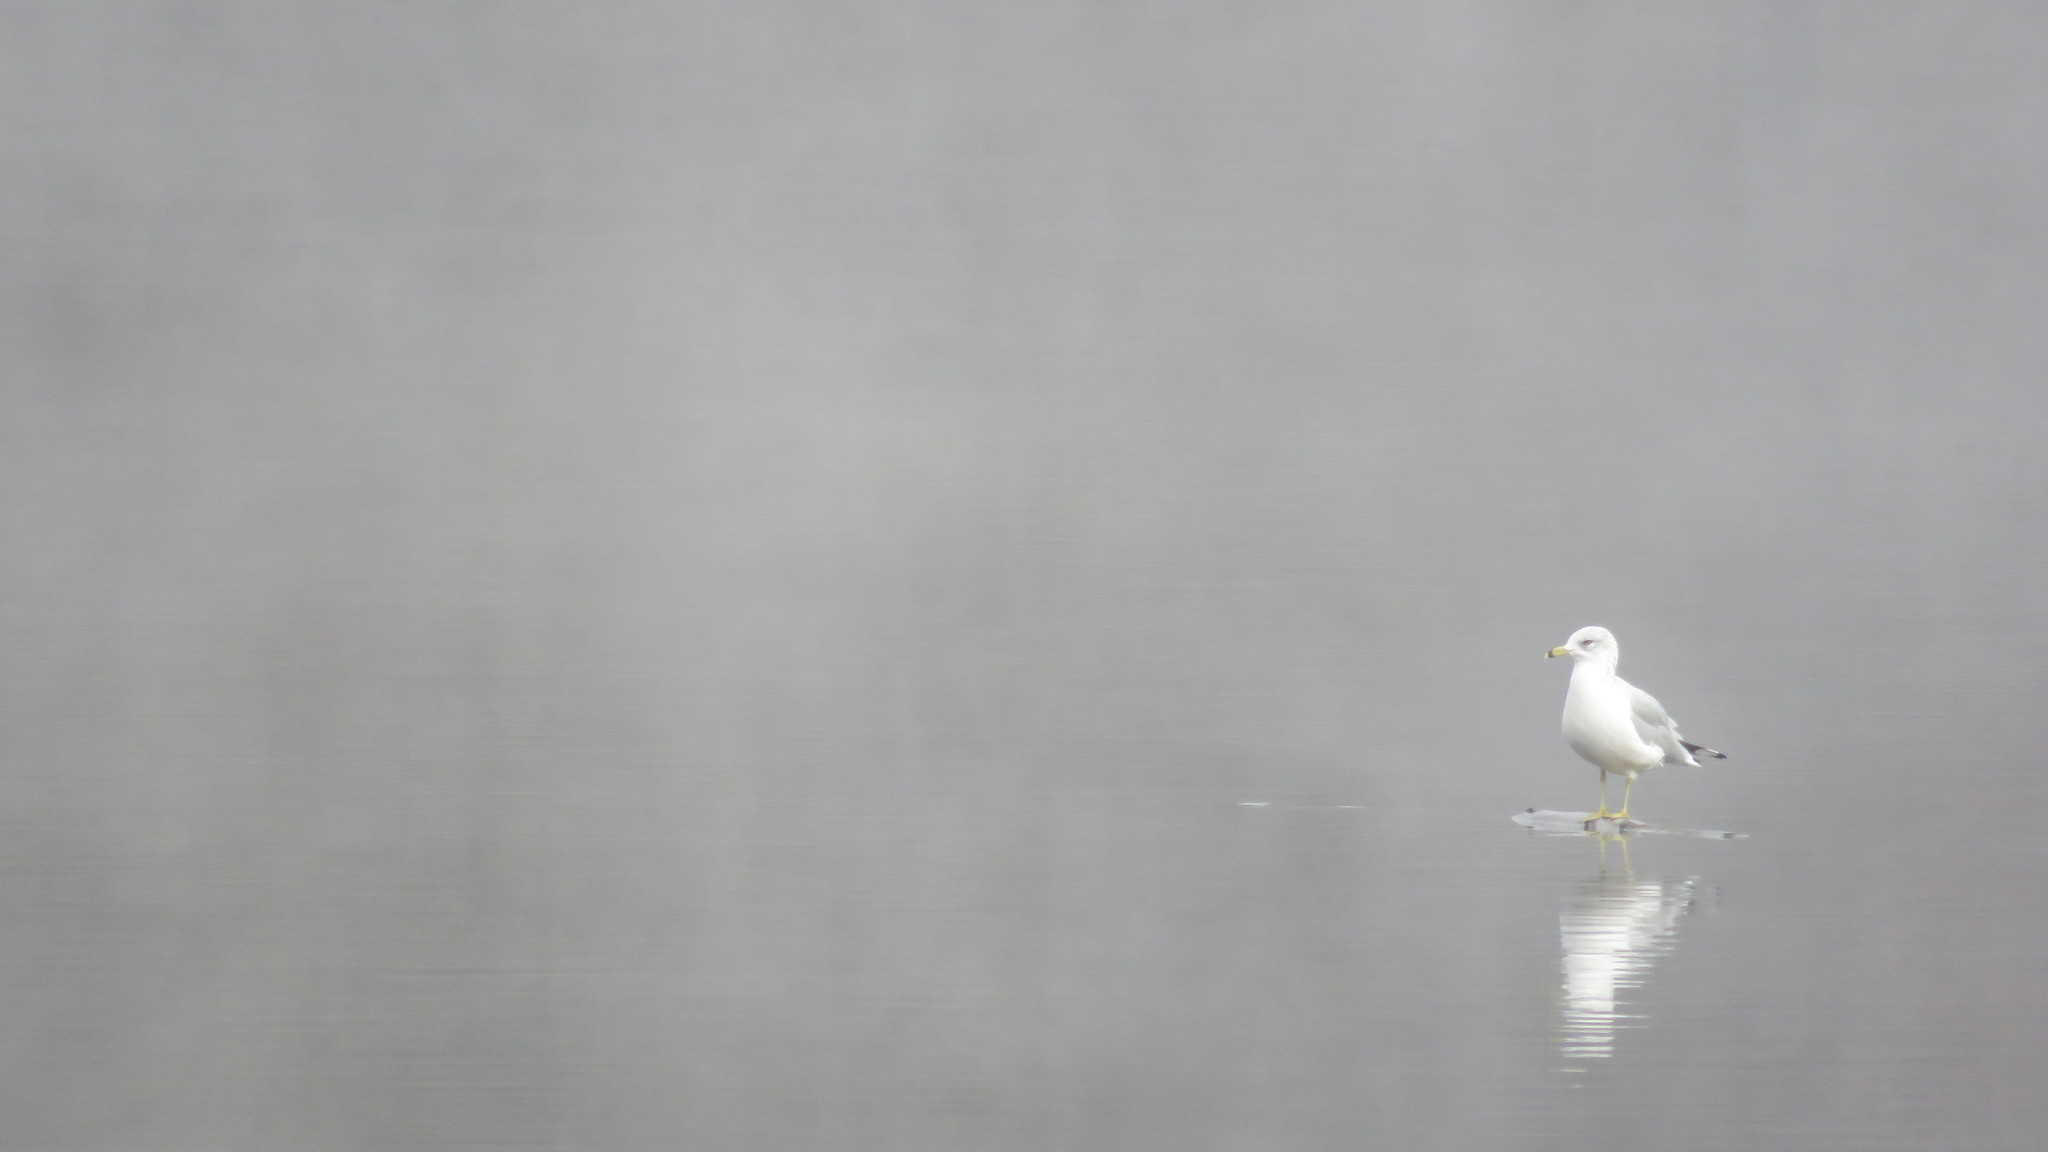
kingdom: Animalia
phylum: Chordata
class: Aves
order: Charadriiformes
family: Laridae
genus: Larus
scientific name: Larus delawarensis
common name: Ring-billed gull
